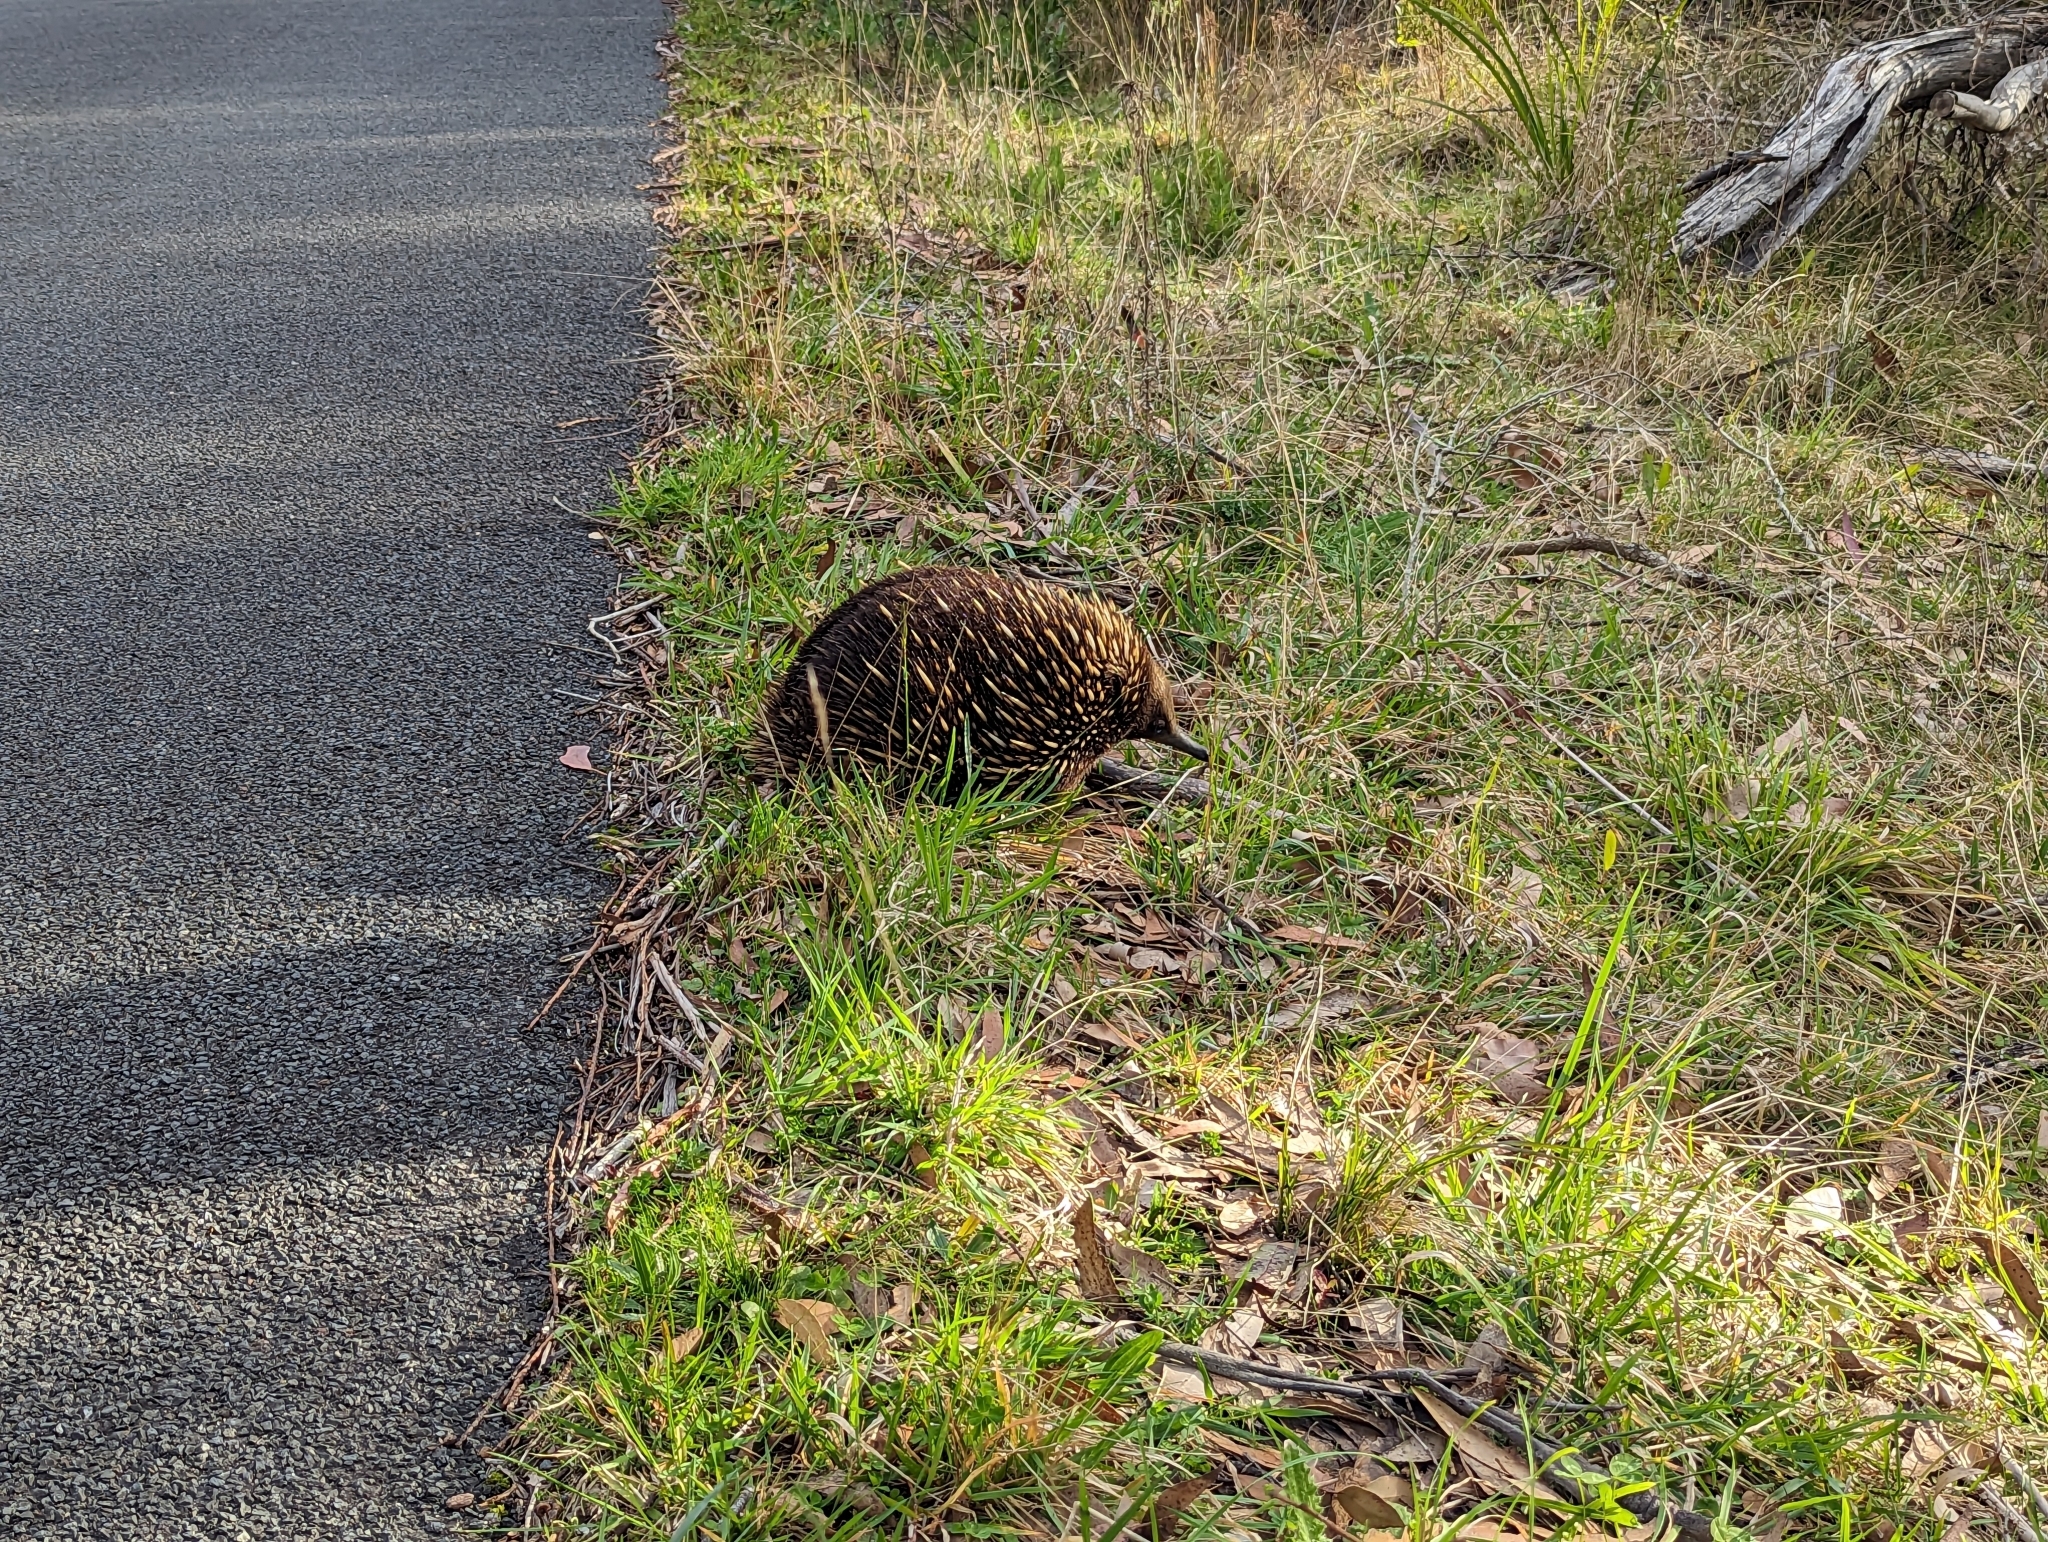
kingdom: Animalia
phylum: Chordata
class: Mammalia
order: Monotremata
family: Tachyglossidae
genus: Tachyglossus
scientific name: Tachyglossus aculeatus
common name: Short-beaked echidna
